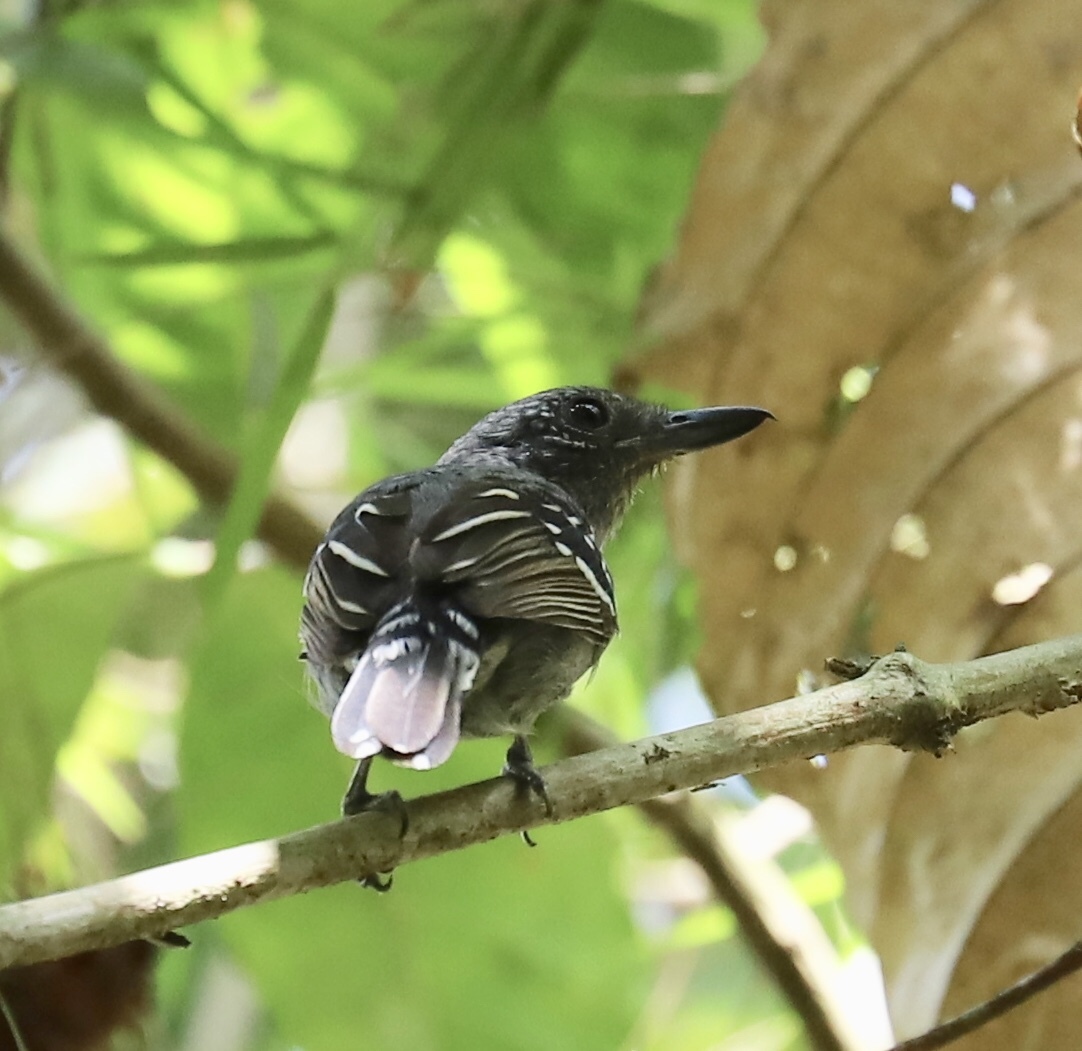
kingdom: Animalia
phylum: Chordata
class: Aves
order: Passeriformes
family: Thamnophilidae
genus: Thamnophilus
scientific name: Thamnophilus atrinucha
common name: Black-crowned antshrike
